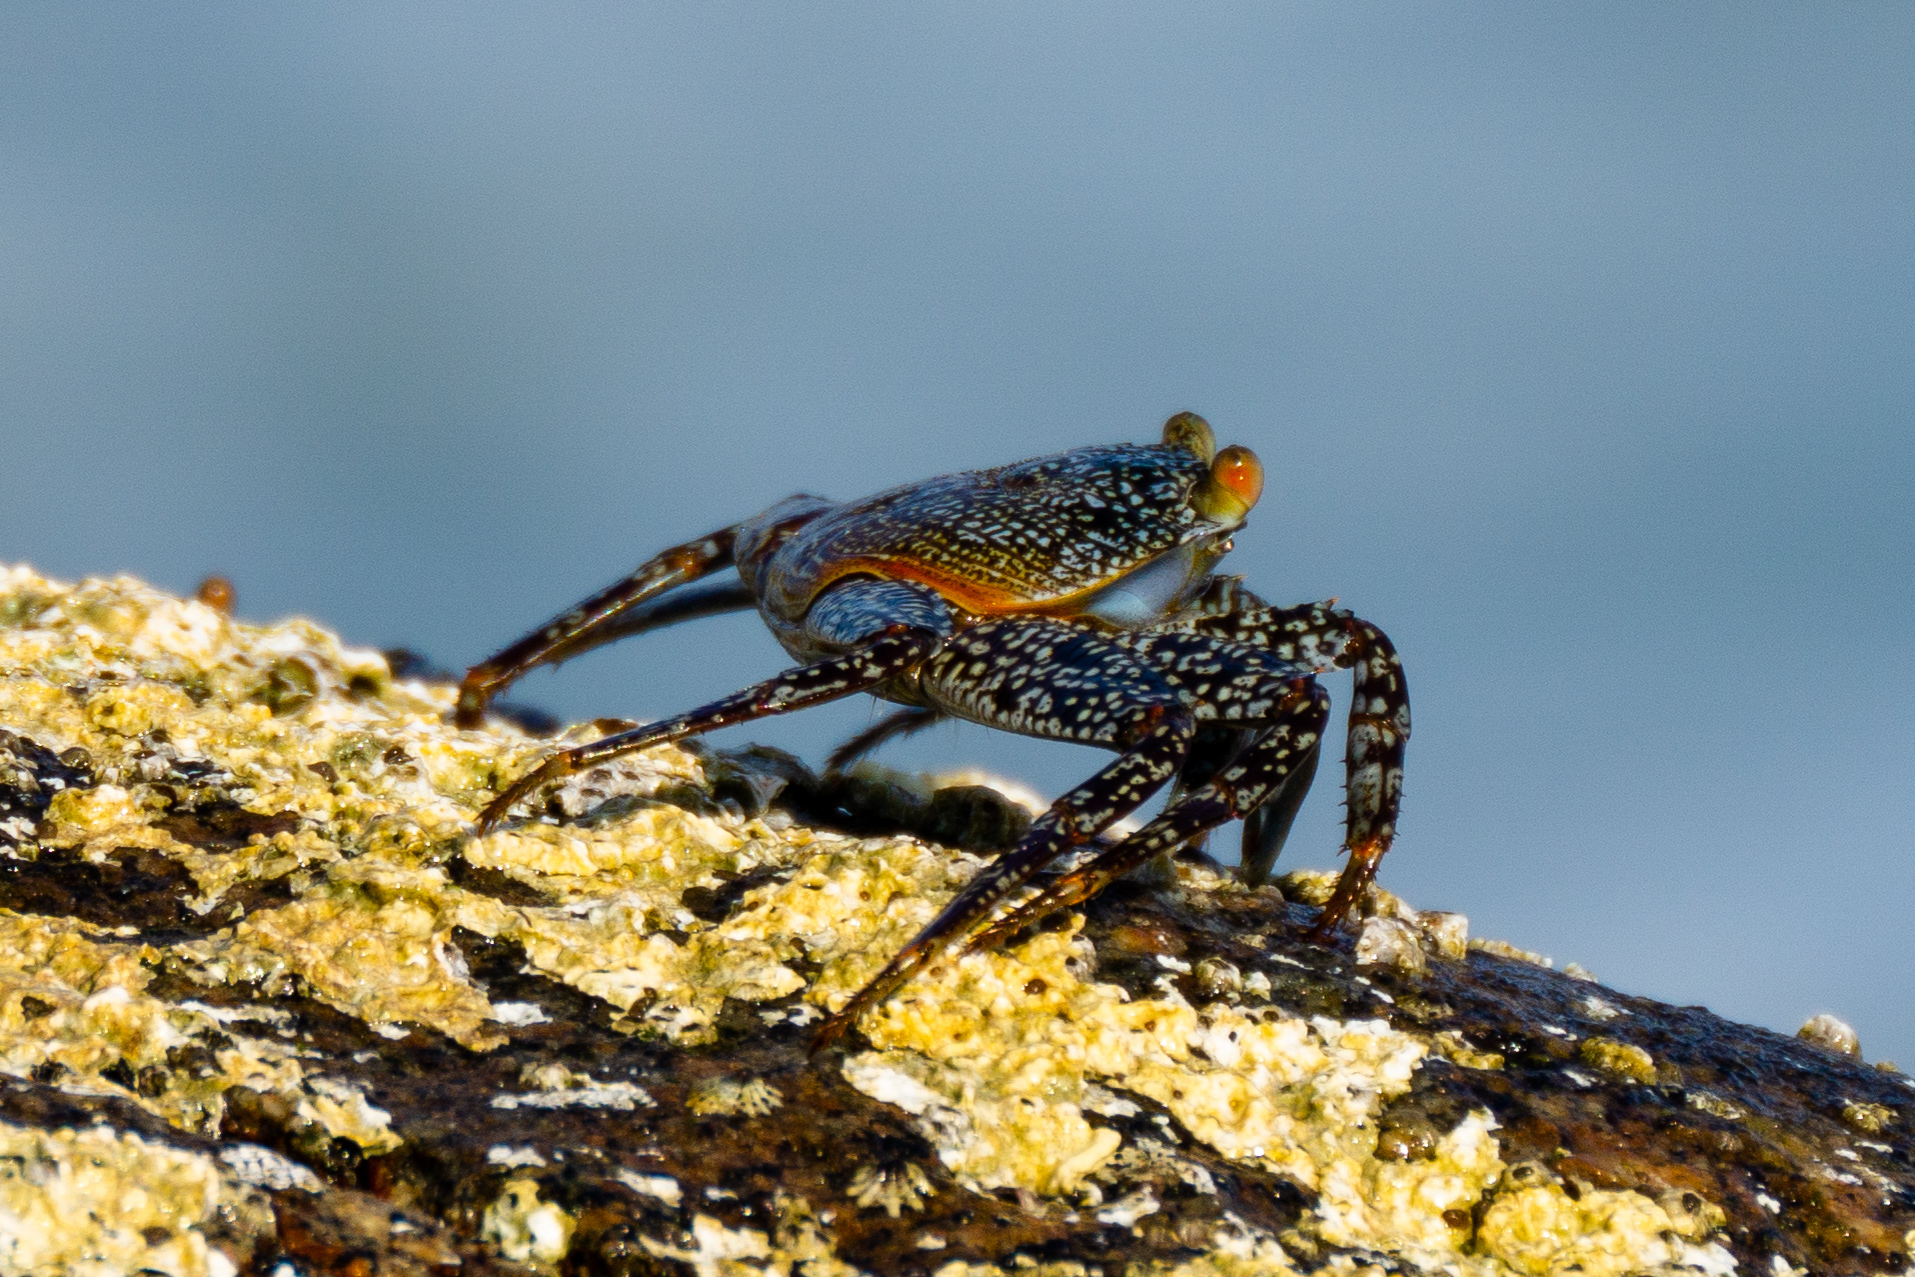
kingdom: Animalia
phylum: Arthropoda
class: Malacostraca
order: Decapoda
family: Grapsidae
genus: Grapsus
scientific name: Grapsus grapsus
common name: Sally lightfoot
